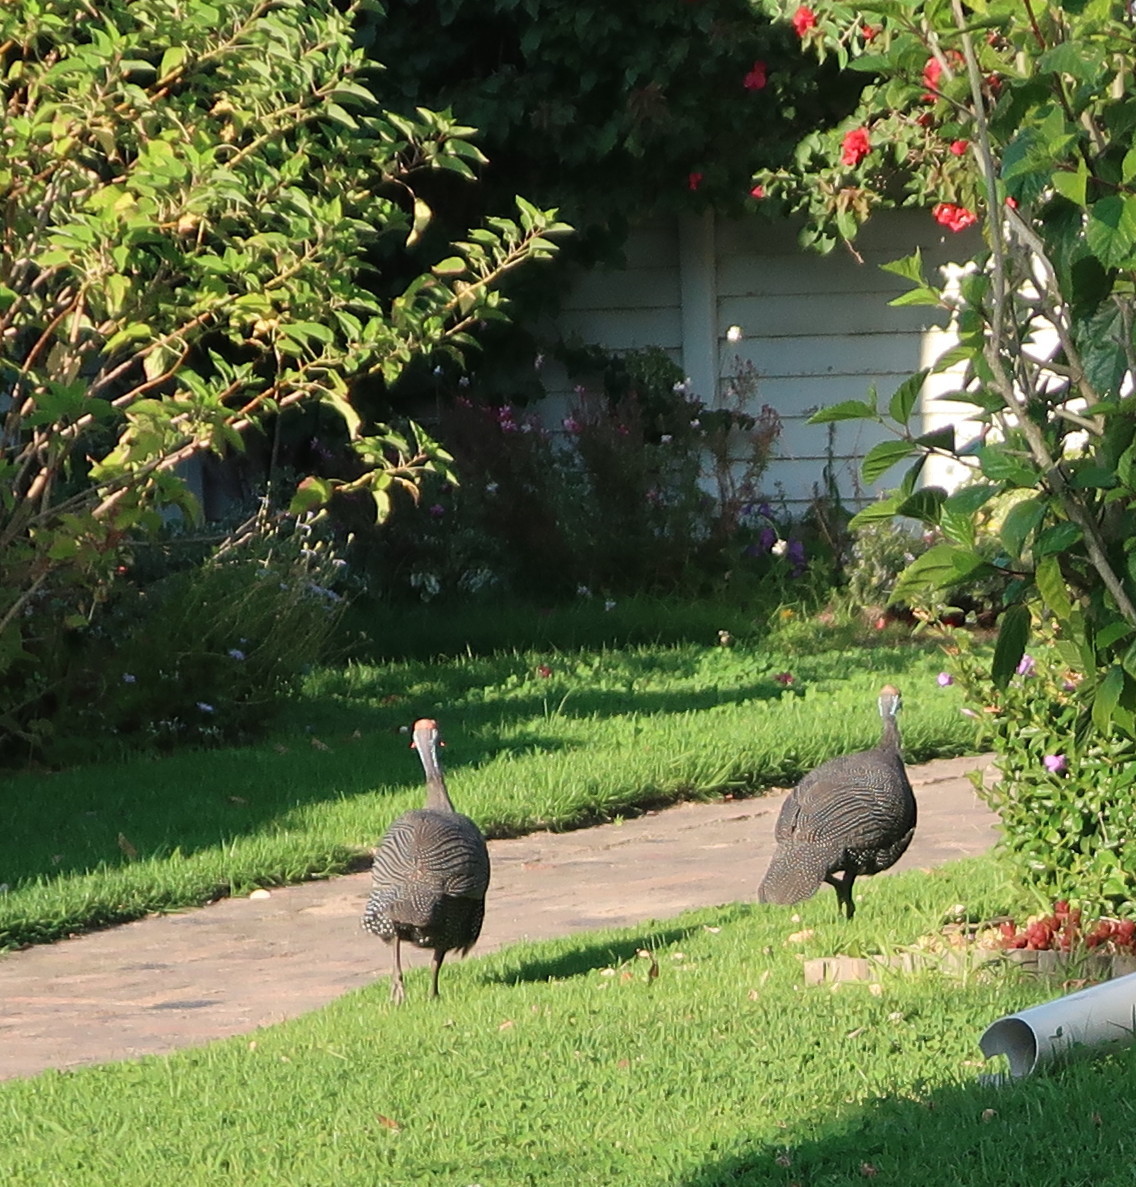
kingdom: Animalia
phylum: Chordata
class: Aves
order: Galliformes
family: Numididae
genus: Numida
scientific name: Numida meleagris
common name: Helmeted guineafowl
